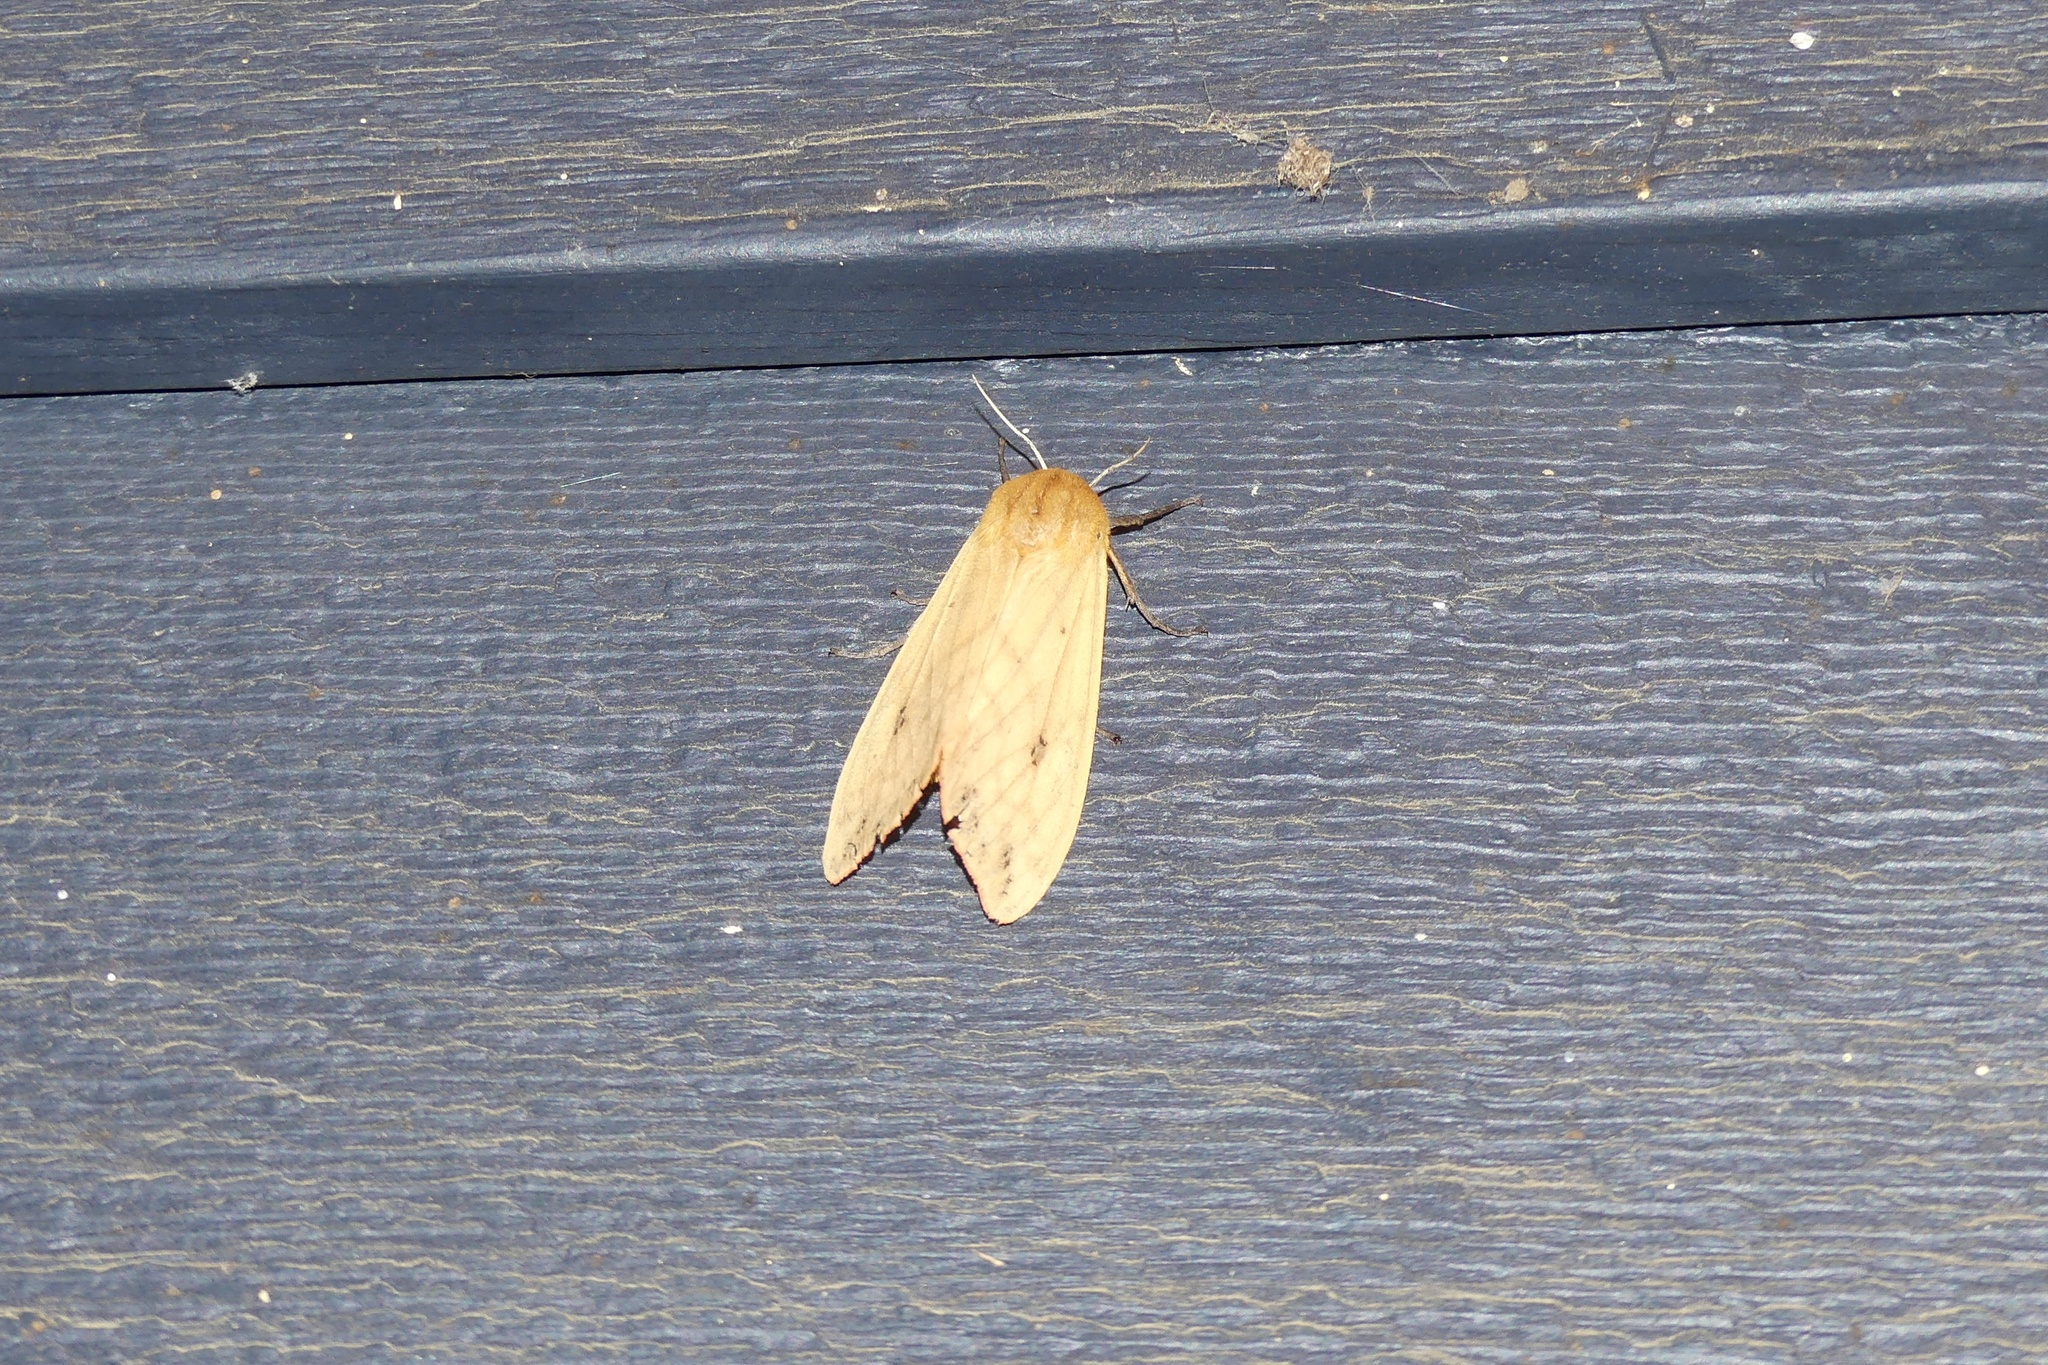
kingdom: Animalia
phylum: Arthropoda
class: Insecta
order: Lepidoptera
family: Erebidae
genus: Pyrrharctia
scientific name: Pyrrharctia isabella
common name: Isabella tiger moth
